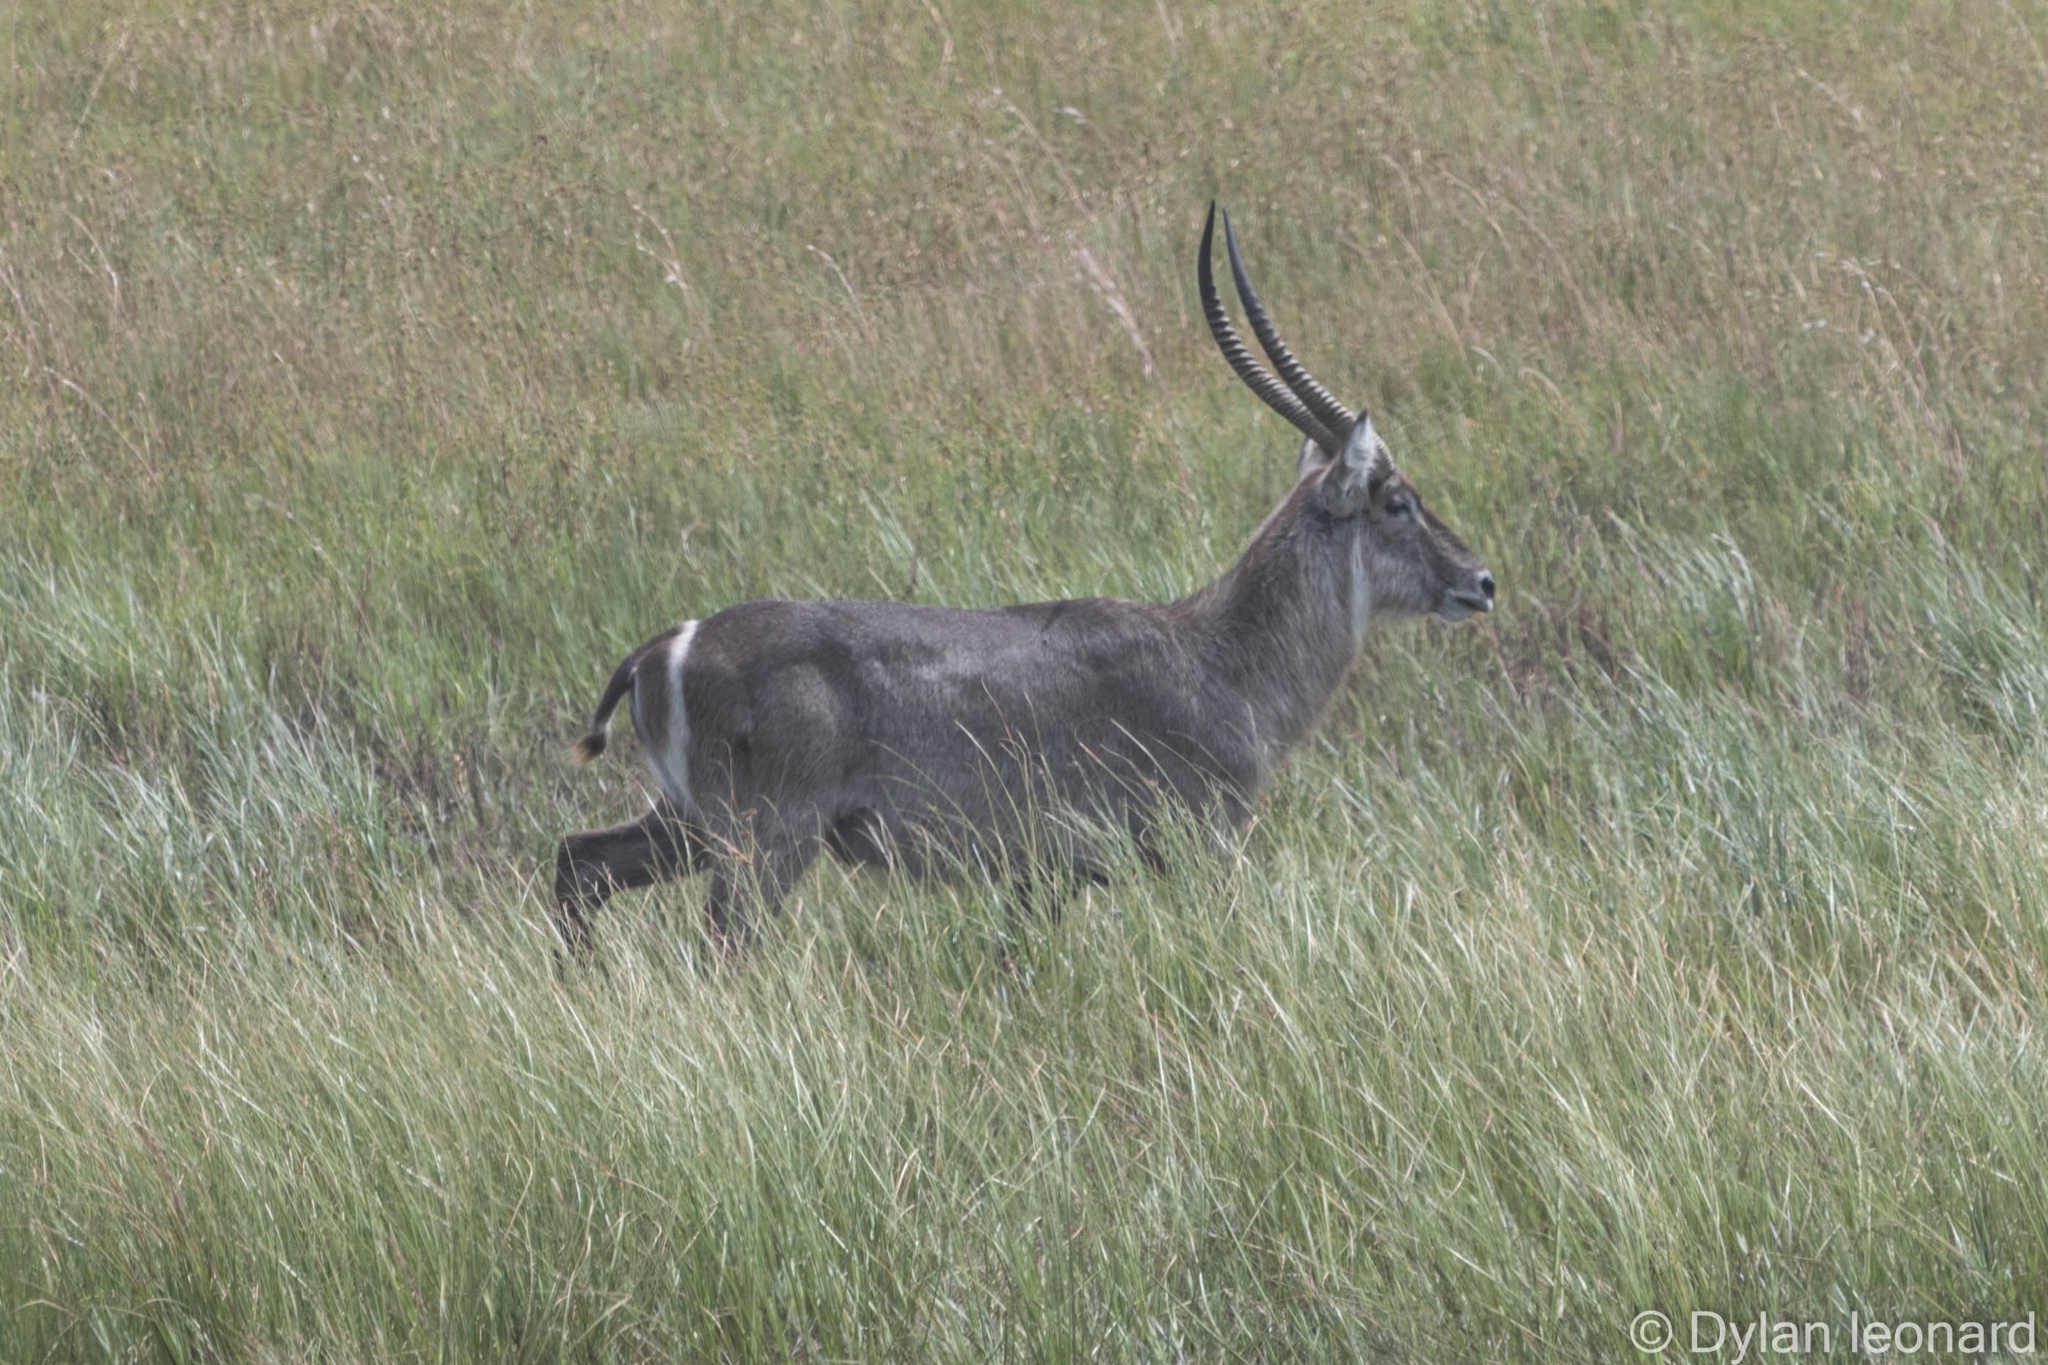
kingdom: Animalia
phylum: Chordata
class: Mammalia
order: Artiodactyla
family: Bovidae
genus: Kobus
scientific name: Kobus ellipsiprymnus
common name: Waterbuck
